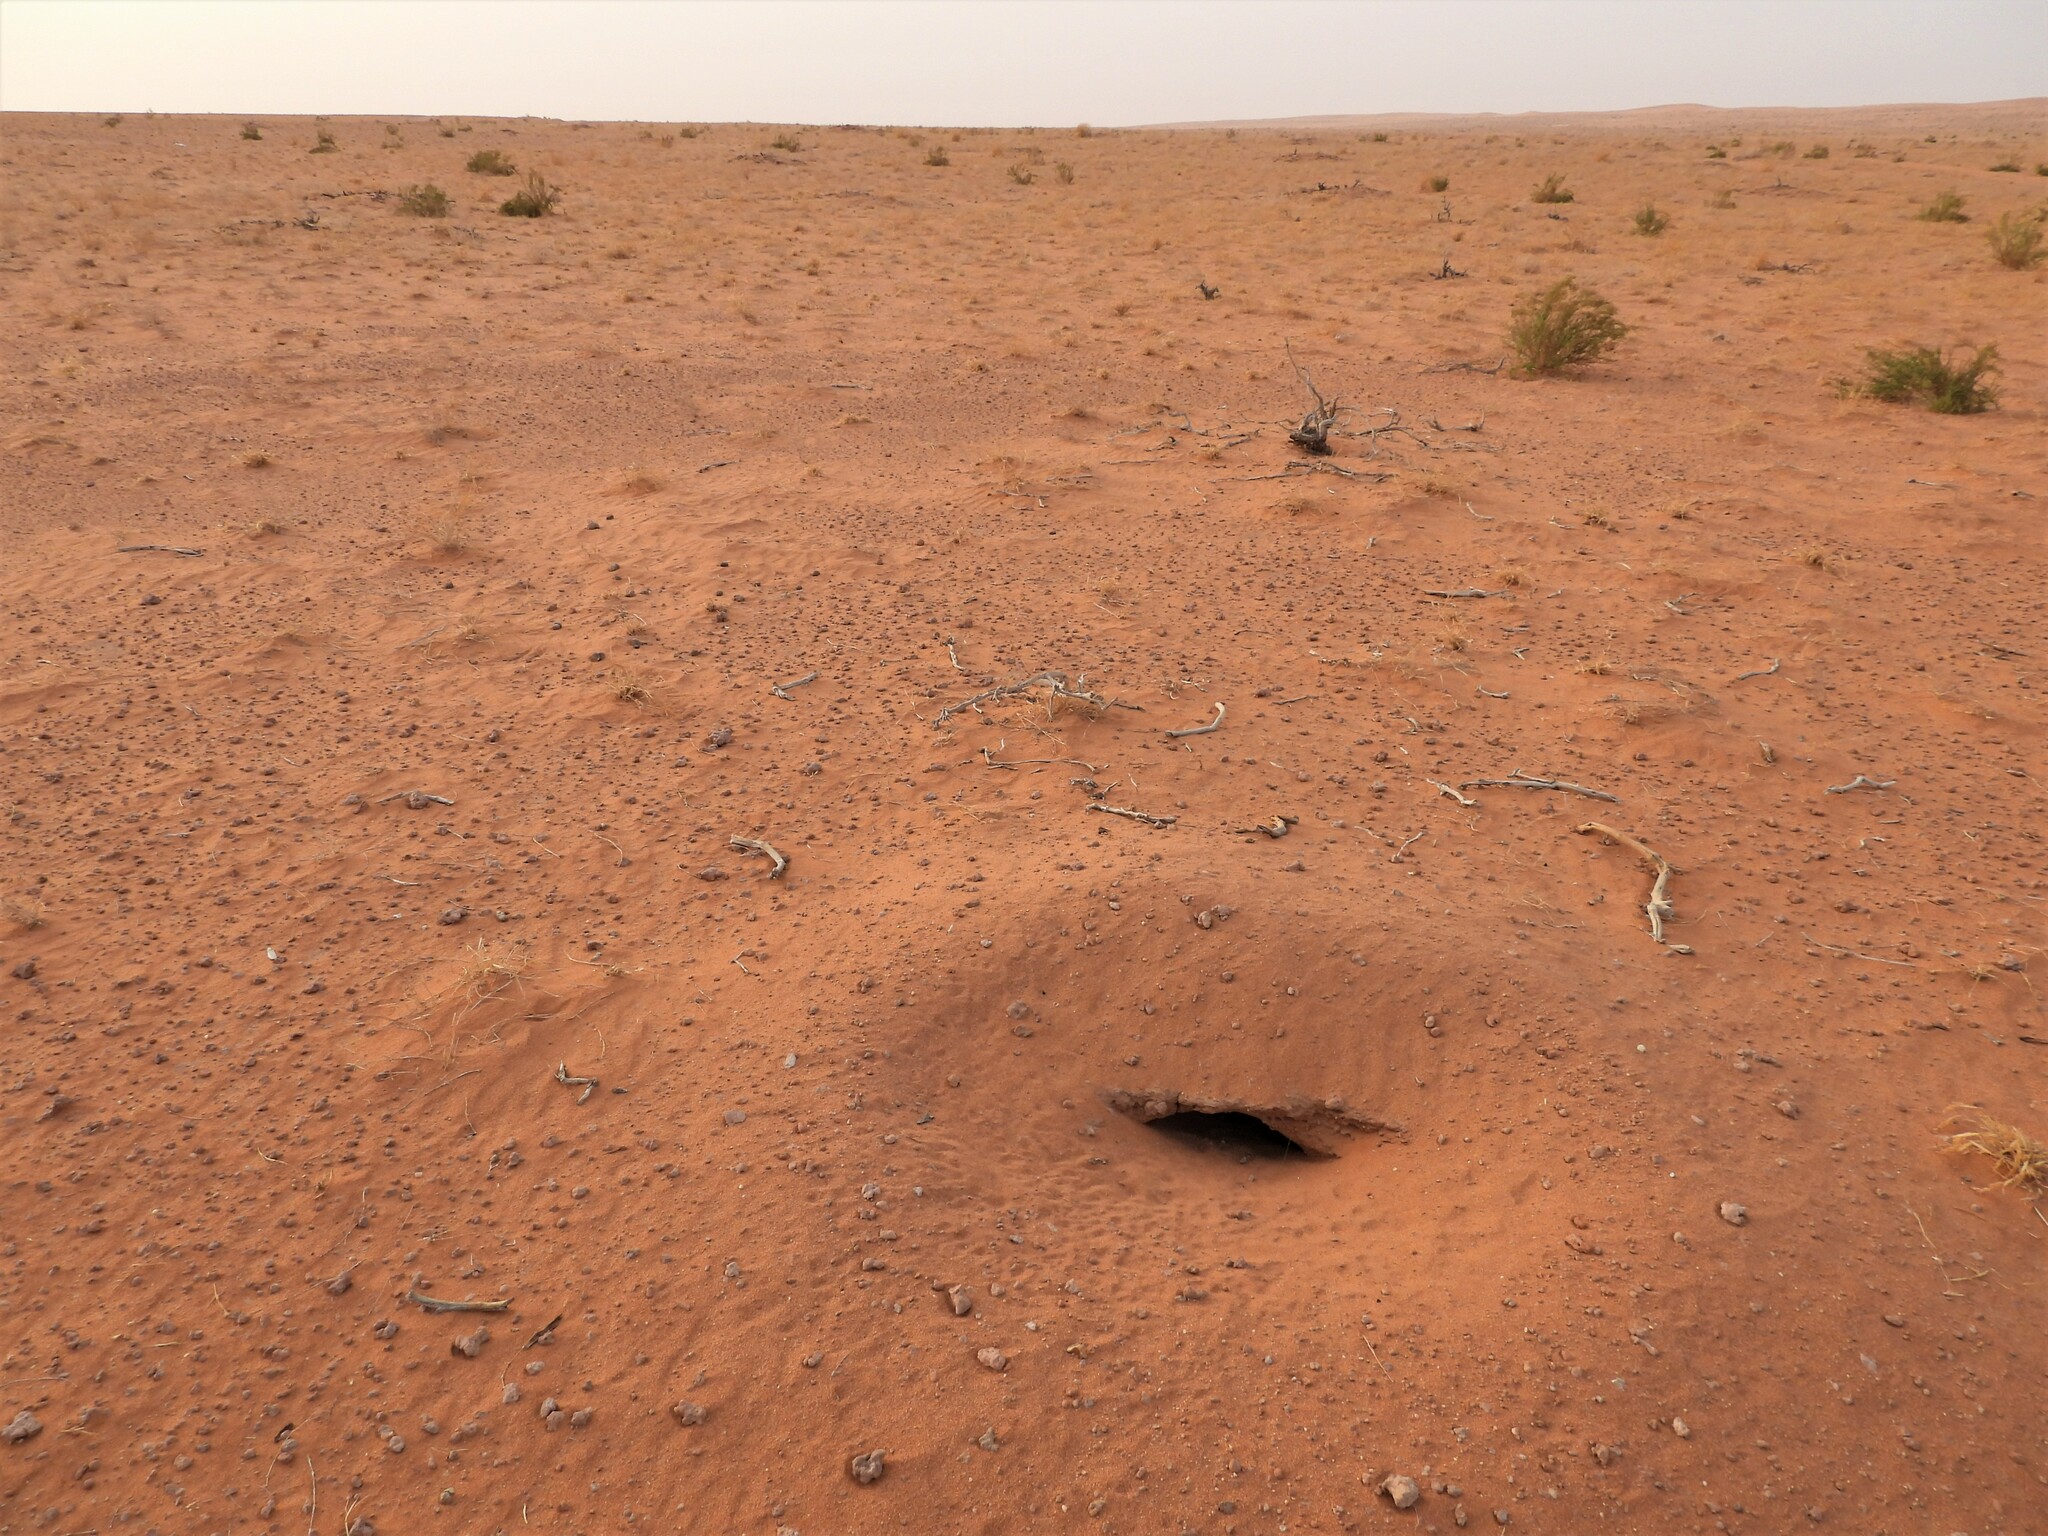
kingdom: Animalia
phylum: Chordata
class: Squamata
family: Agamidae
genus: Uromastyx
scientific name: Uromastyx aegyptia
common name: Egyptian mastigure
